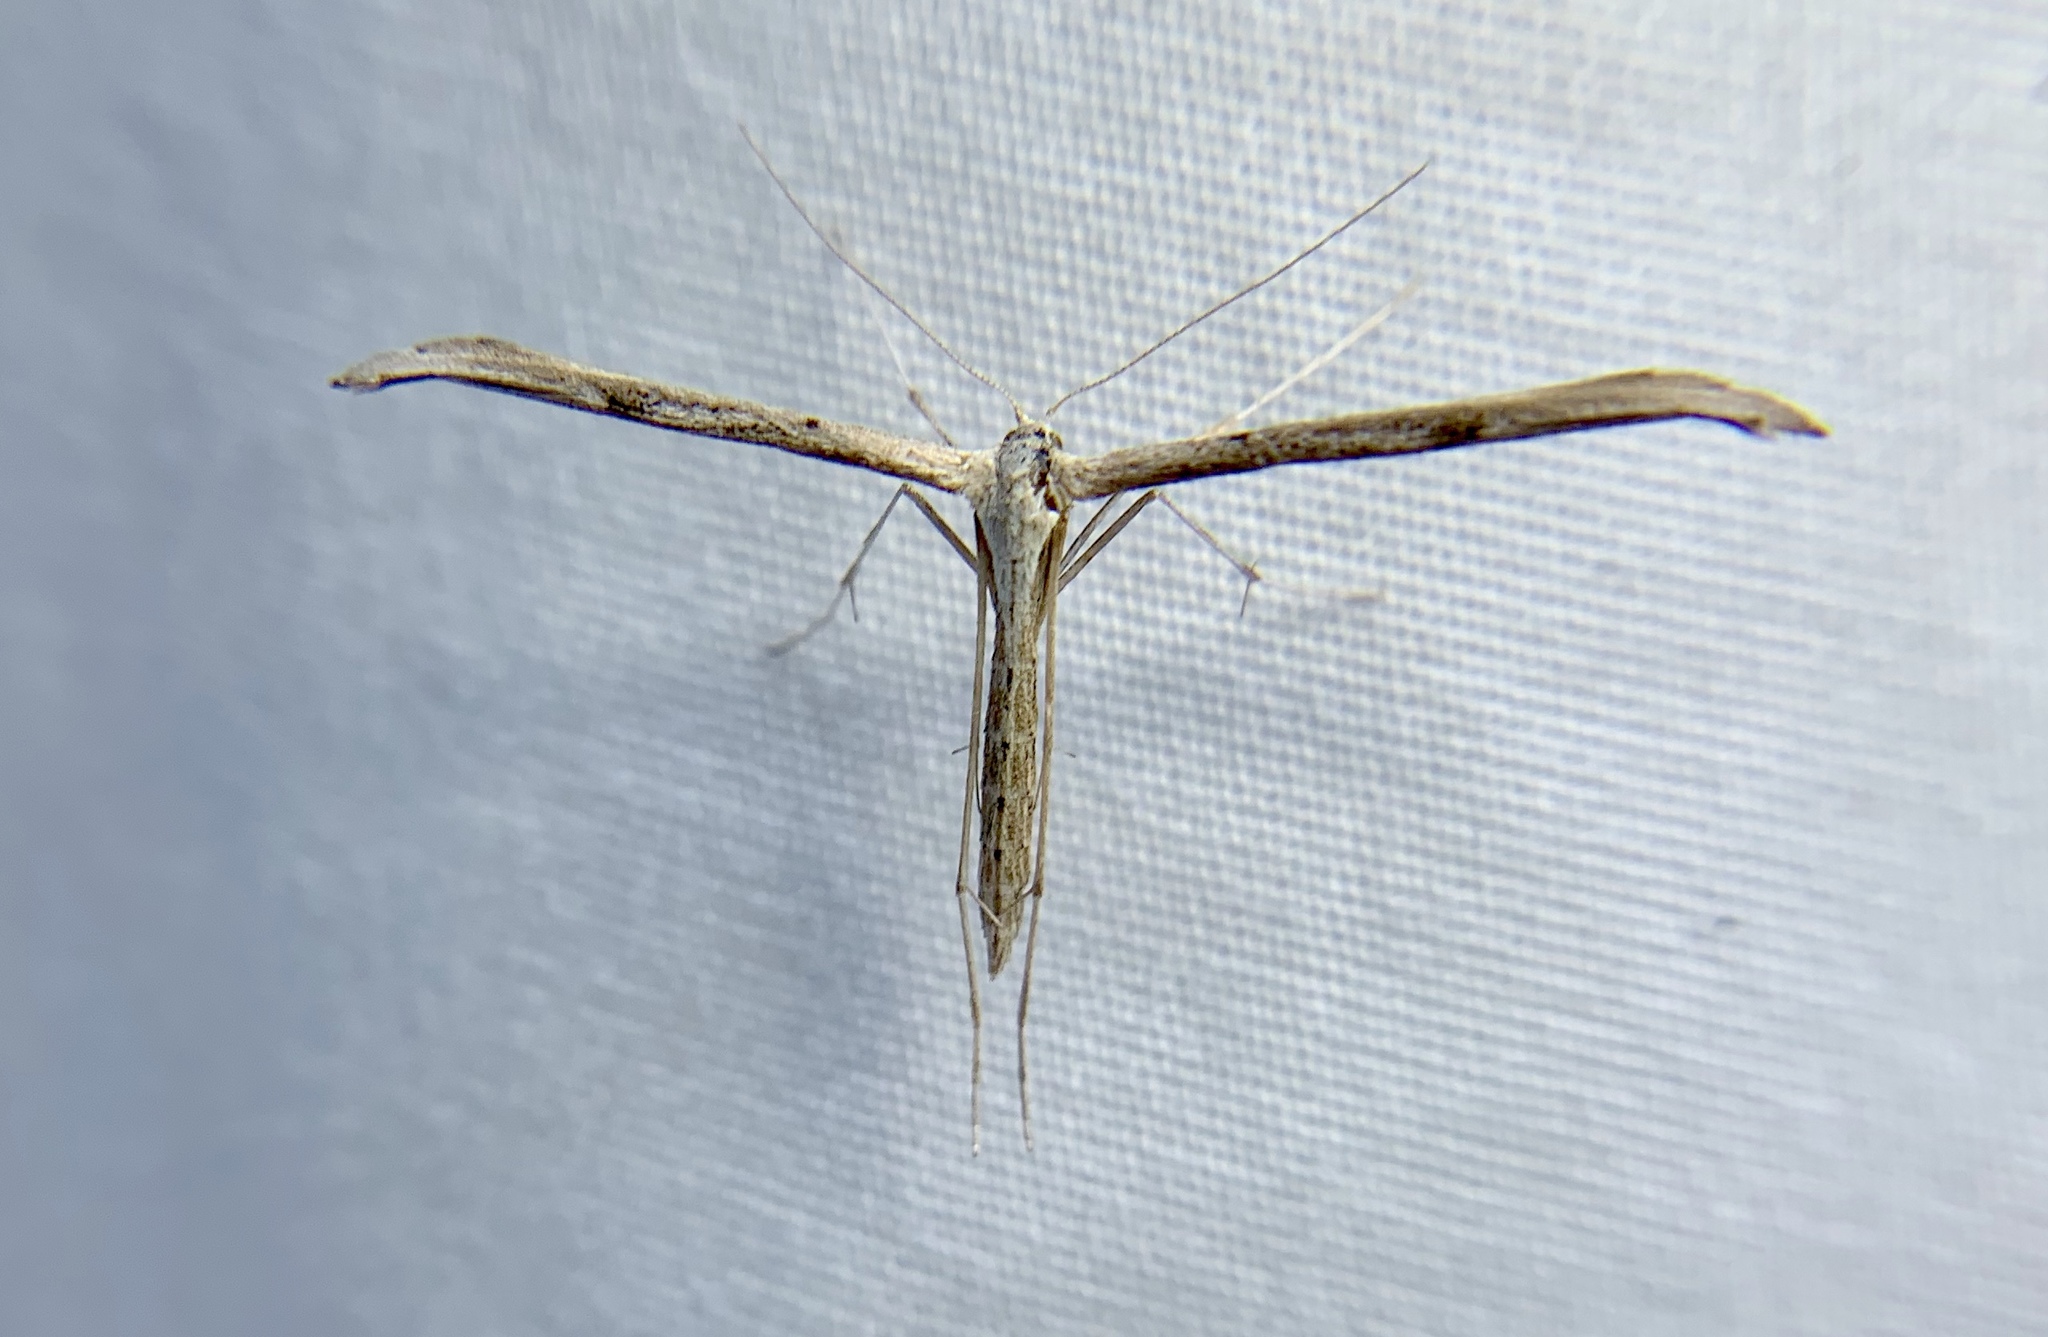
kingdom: Animalia
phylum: Arthropoda
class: Insecta
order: Lepidoptera
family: Pterophoridae
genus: Emmelina
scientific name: Emmelina monodactyla
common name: Common plume
